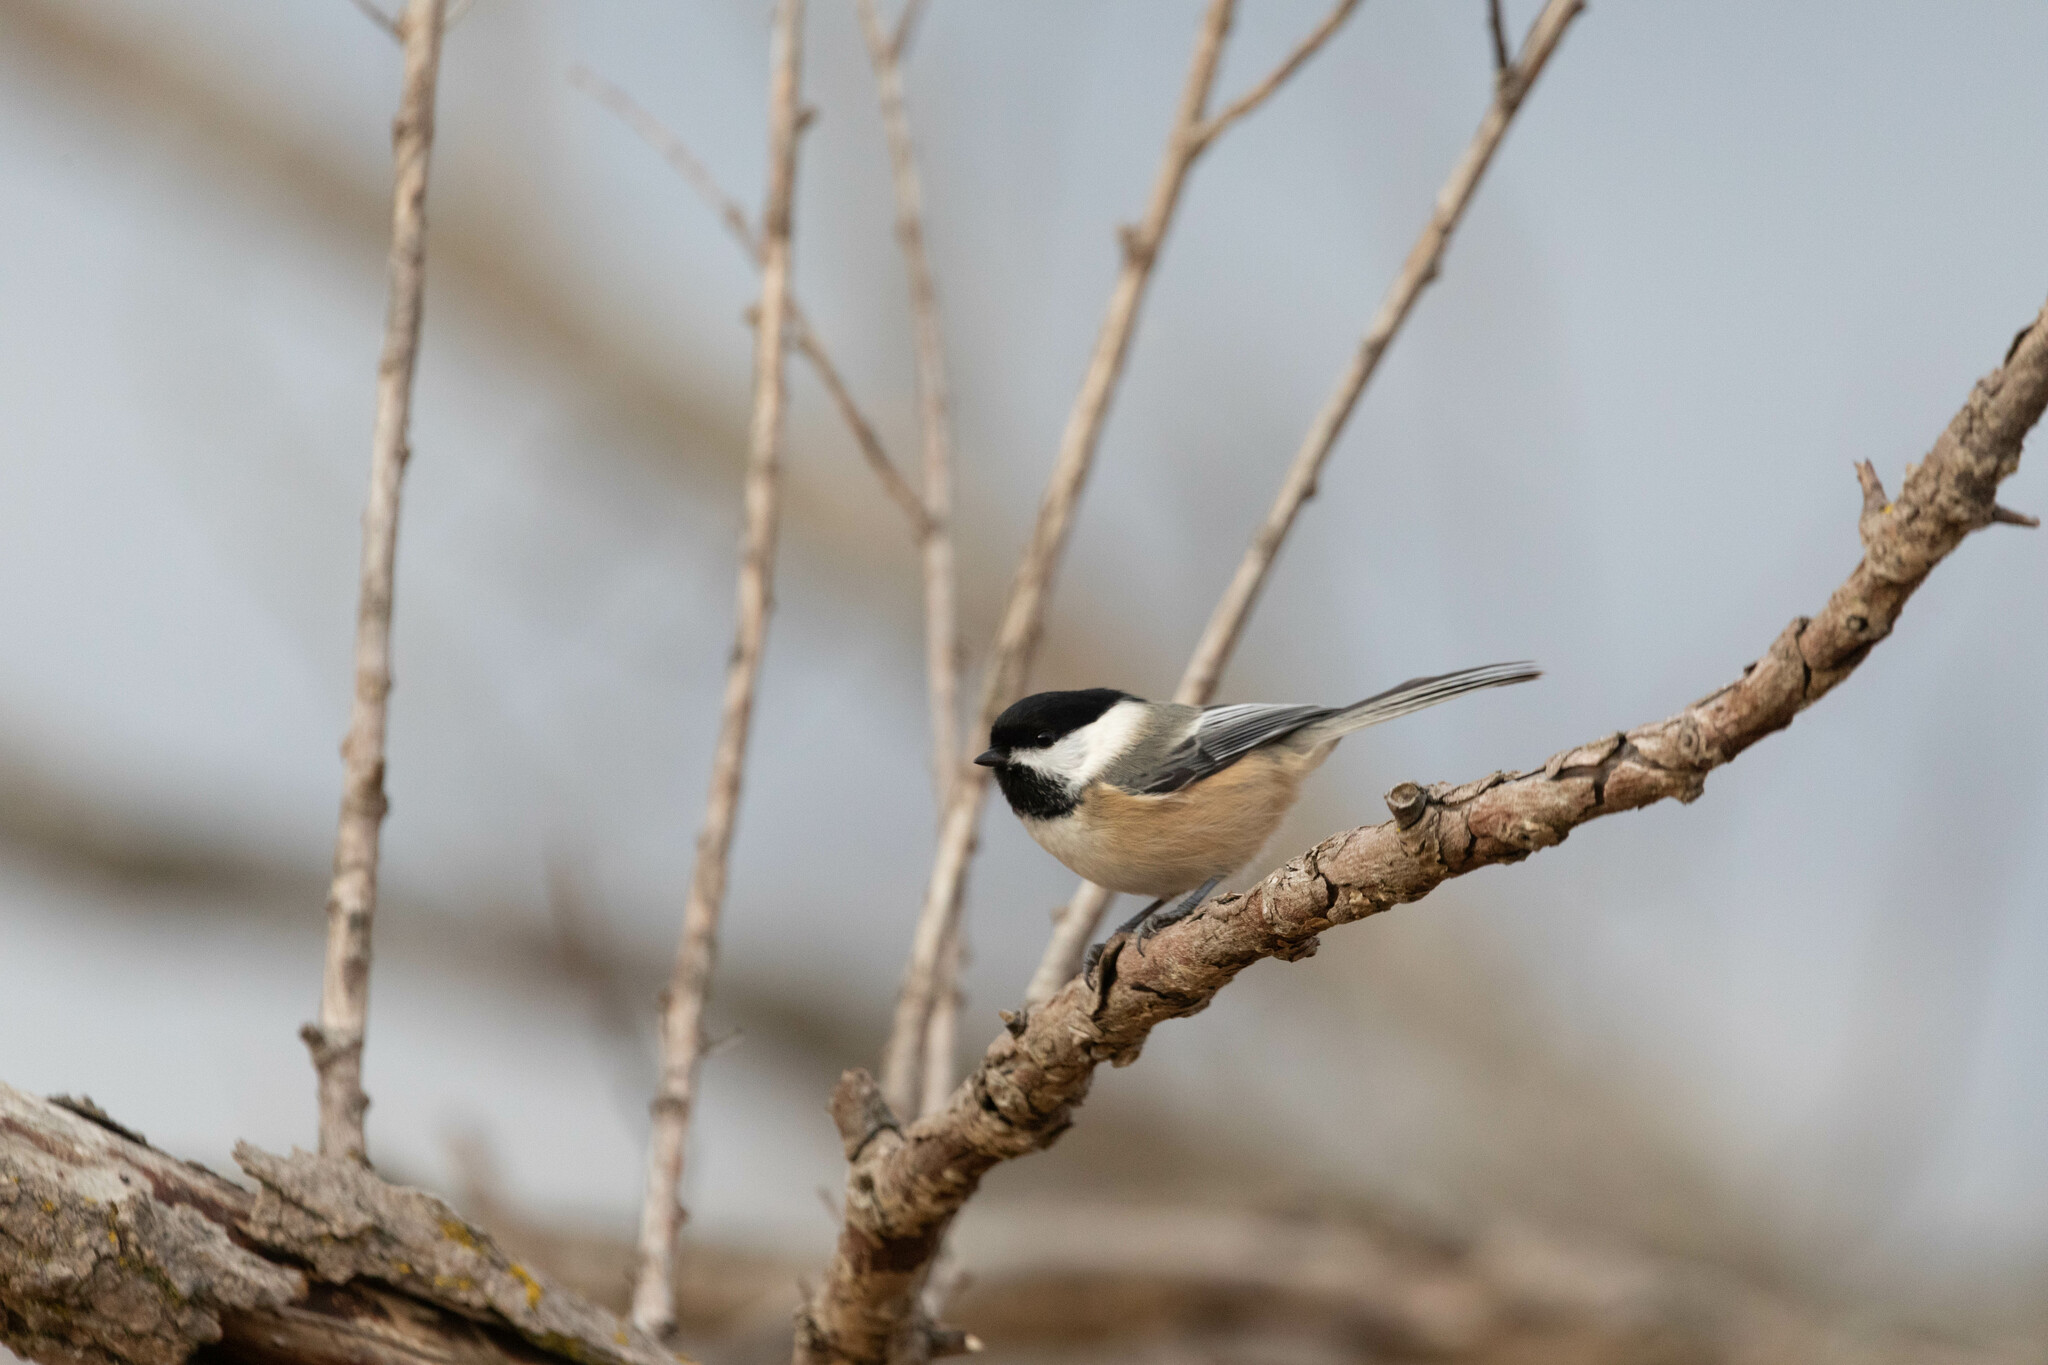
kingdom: Animalia
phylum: Chordata
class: Aves
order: Passeriformes
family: Paridae
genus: Poecile
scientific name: Poecile atricapillus
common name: Black-capped chickadee
